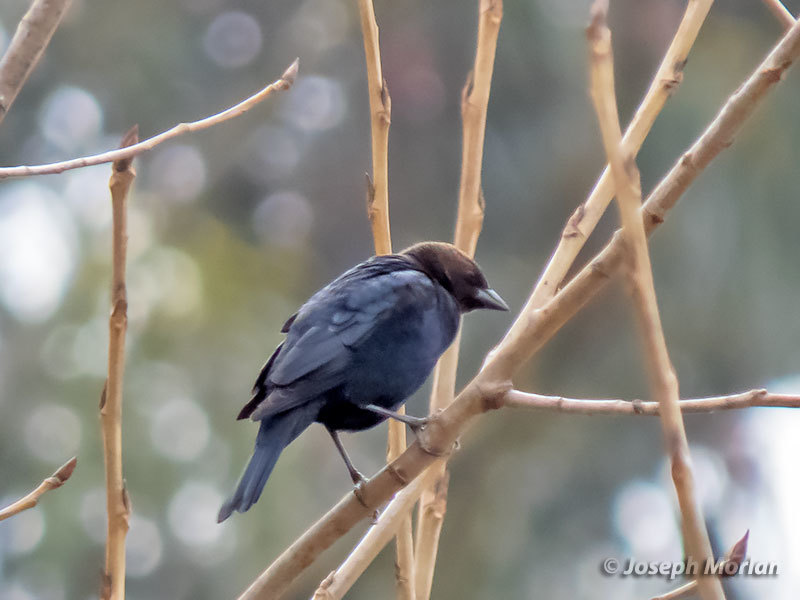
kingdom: Animalia
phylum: Chordata
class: Aves
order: Passeriformes
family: Icteridae
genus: Molothrus
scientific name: Molothrus ater
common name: Brown-headed cowbird
